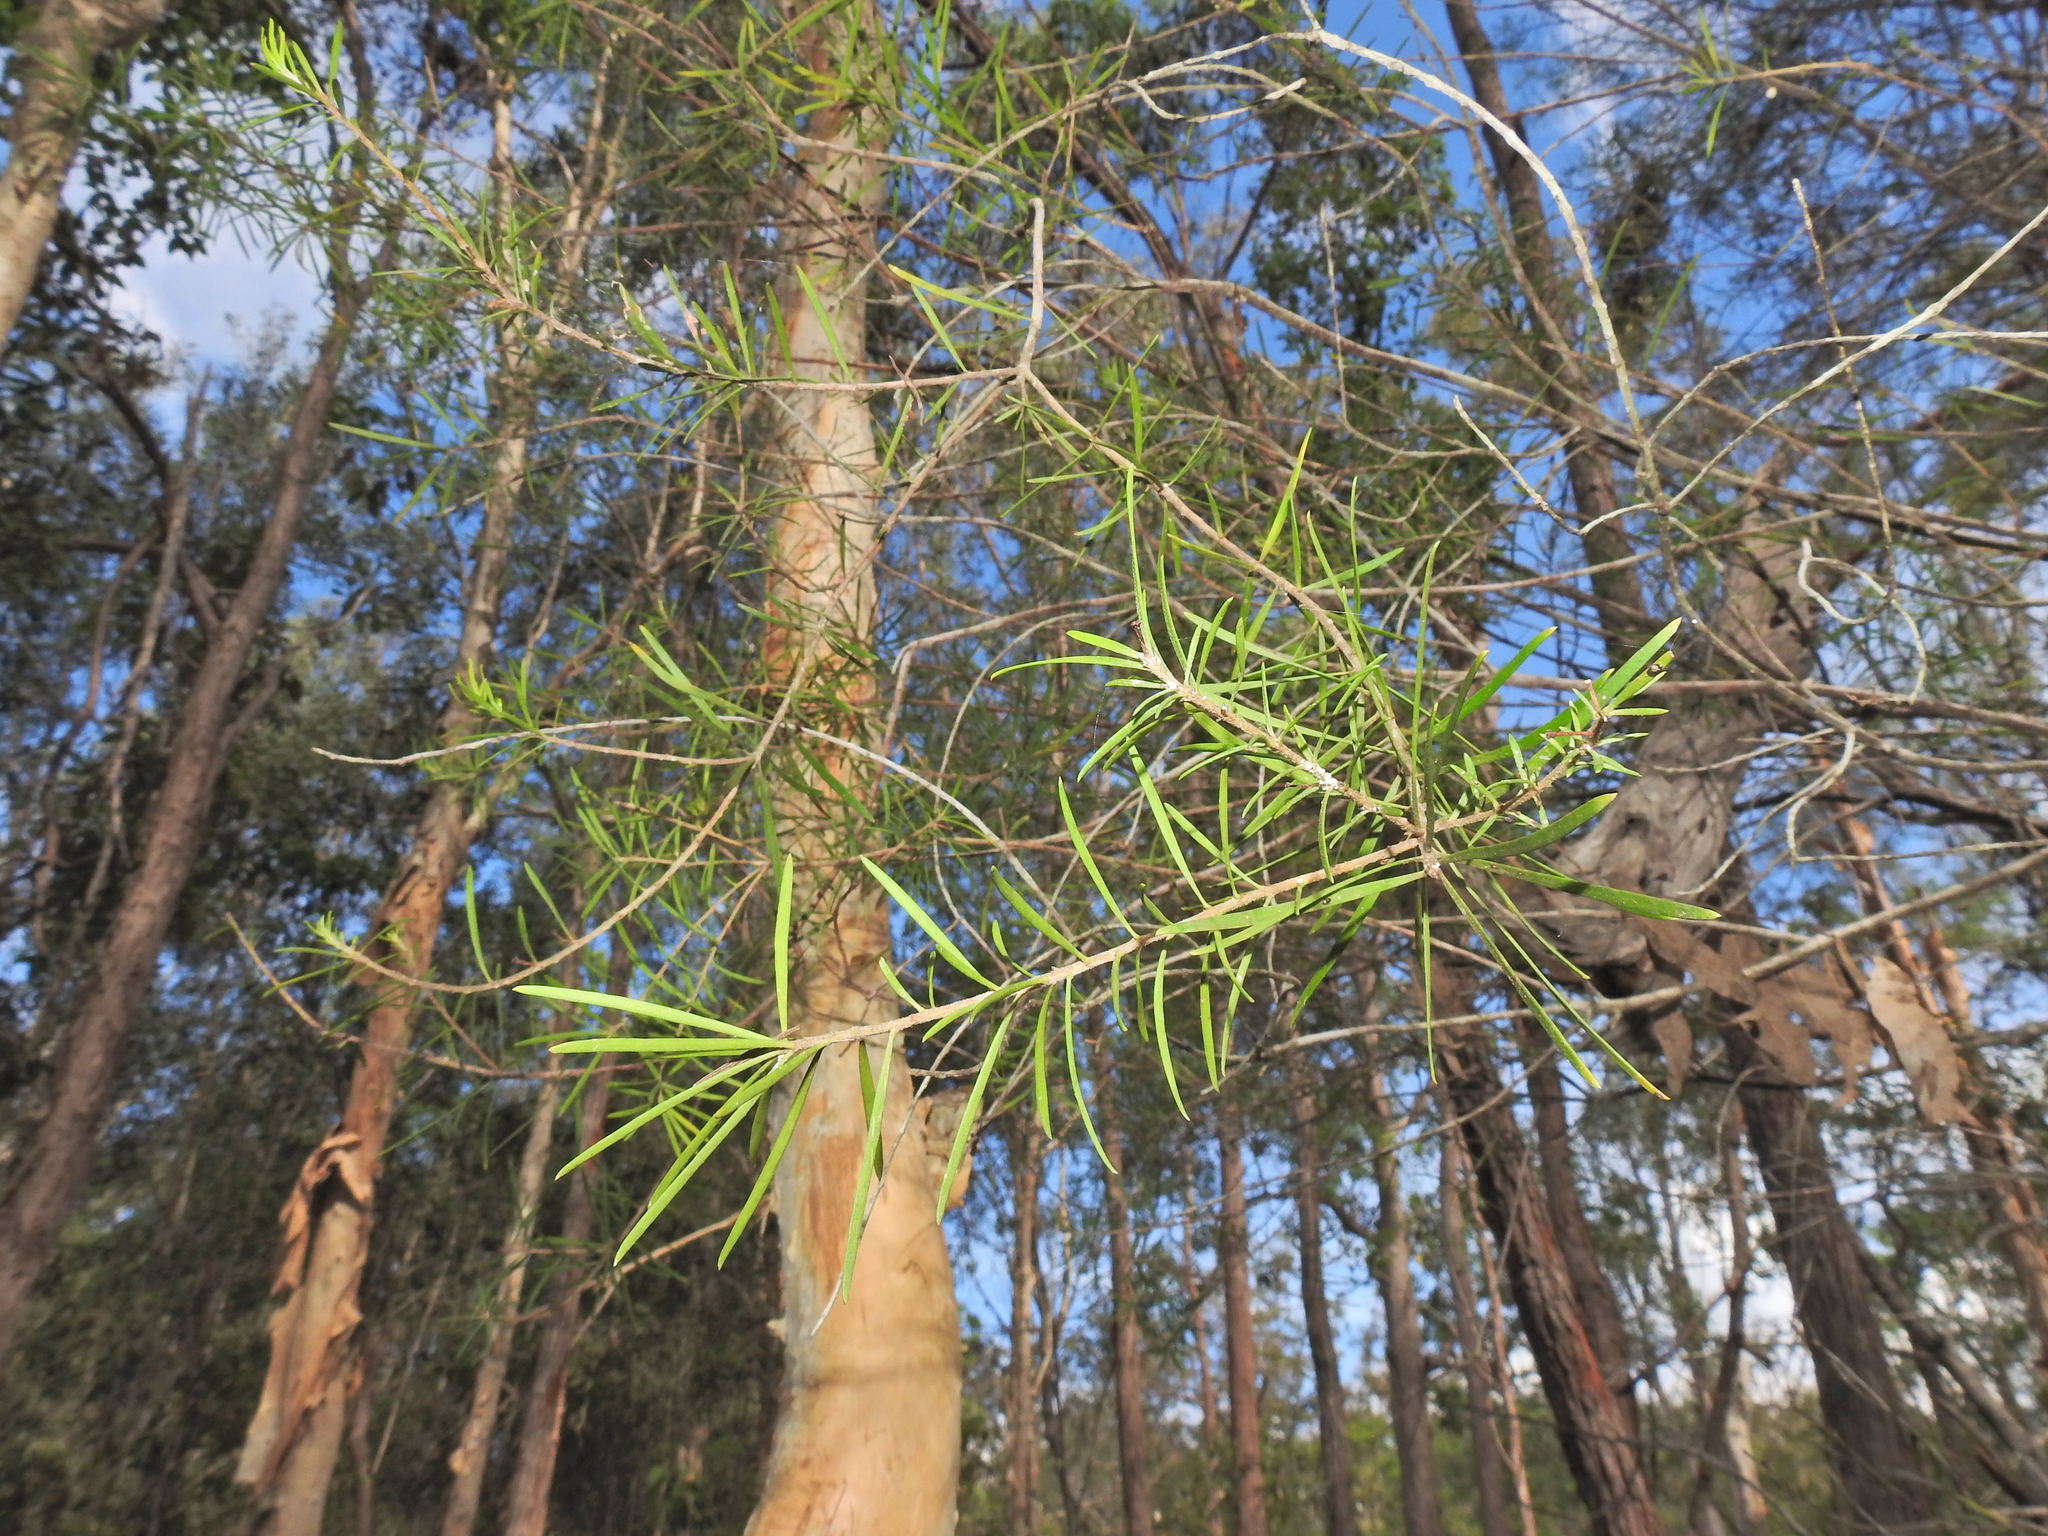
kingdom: Plantae
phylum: Tracheophyta
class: Magnoliopsida
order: Proteales
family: Proteaceae
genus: Persoonia
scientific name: Persoonia virgata
